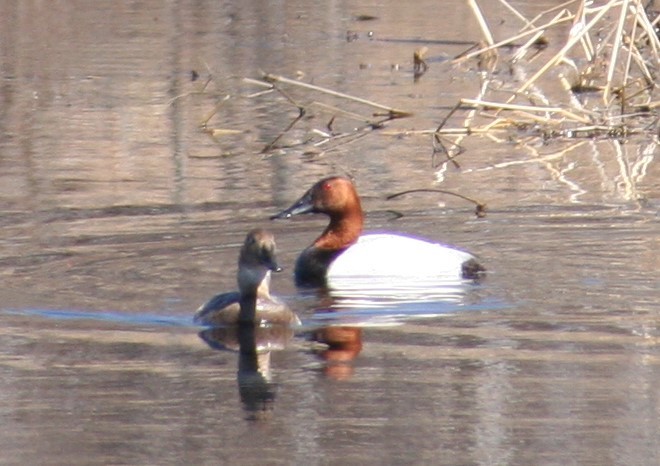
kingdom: Animalia
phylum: Chordata
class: Aves
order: Anseriformes
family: Anatidae
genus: Aythya
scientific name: Aythya valisineria
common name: Canvasback
